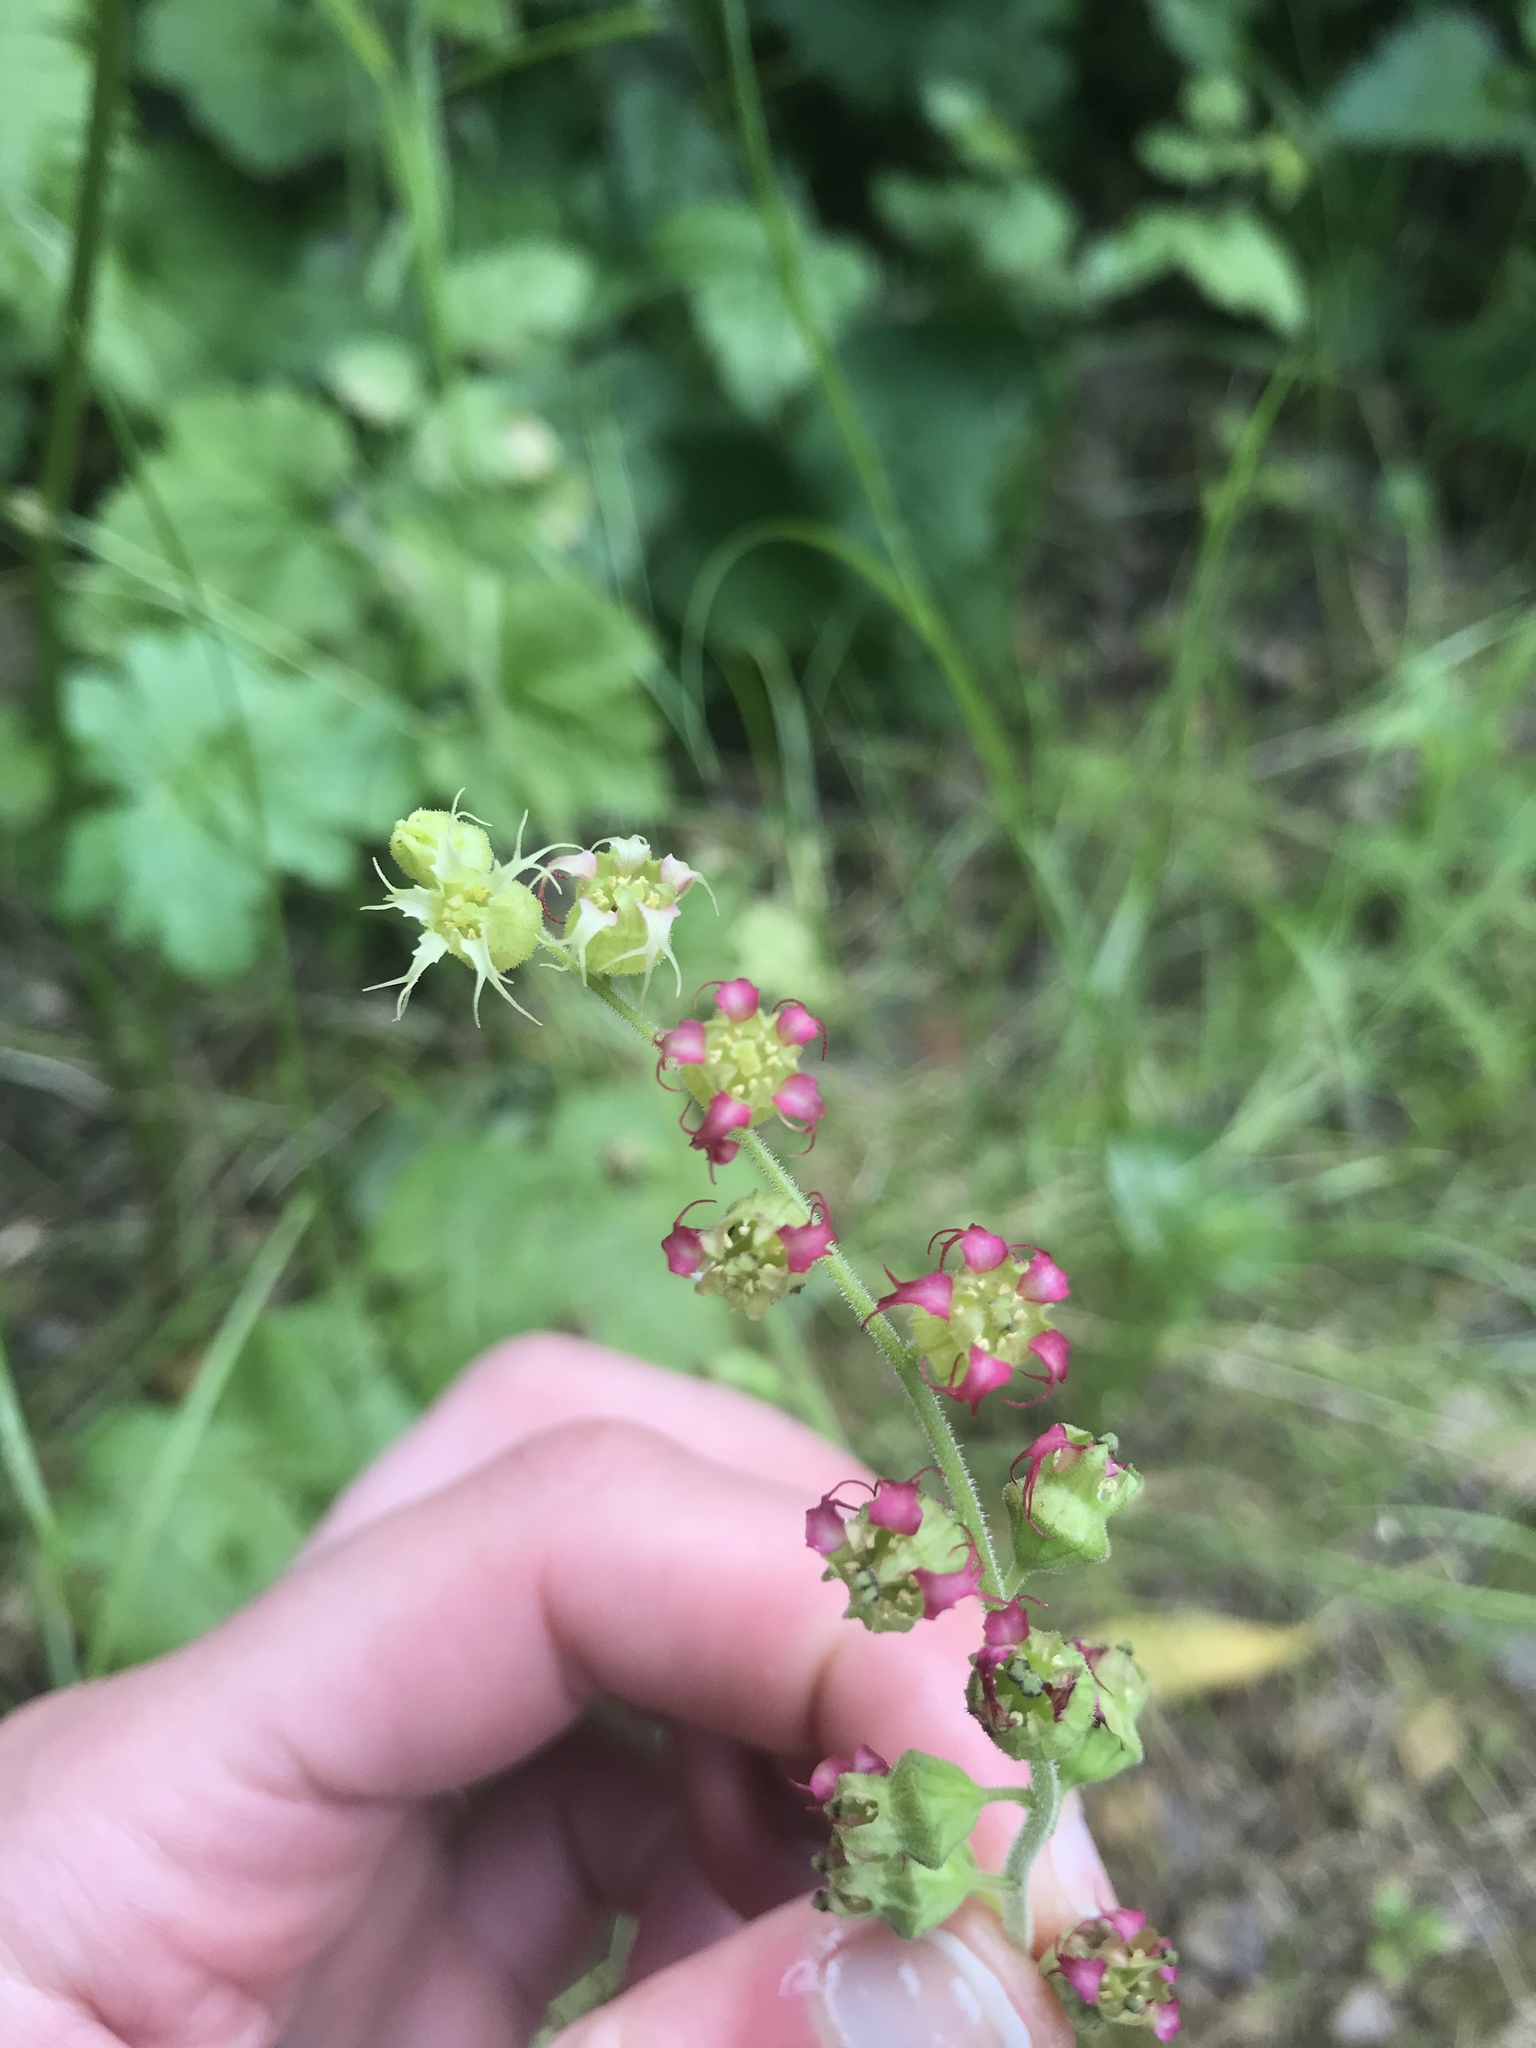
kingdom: Plantae
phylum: Tracheophyta
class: Magnoliopsida
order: Saxifragales
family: Saxifragaceae
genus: Tellima
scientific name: Tellima grandiflora
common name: Fringecups
